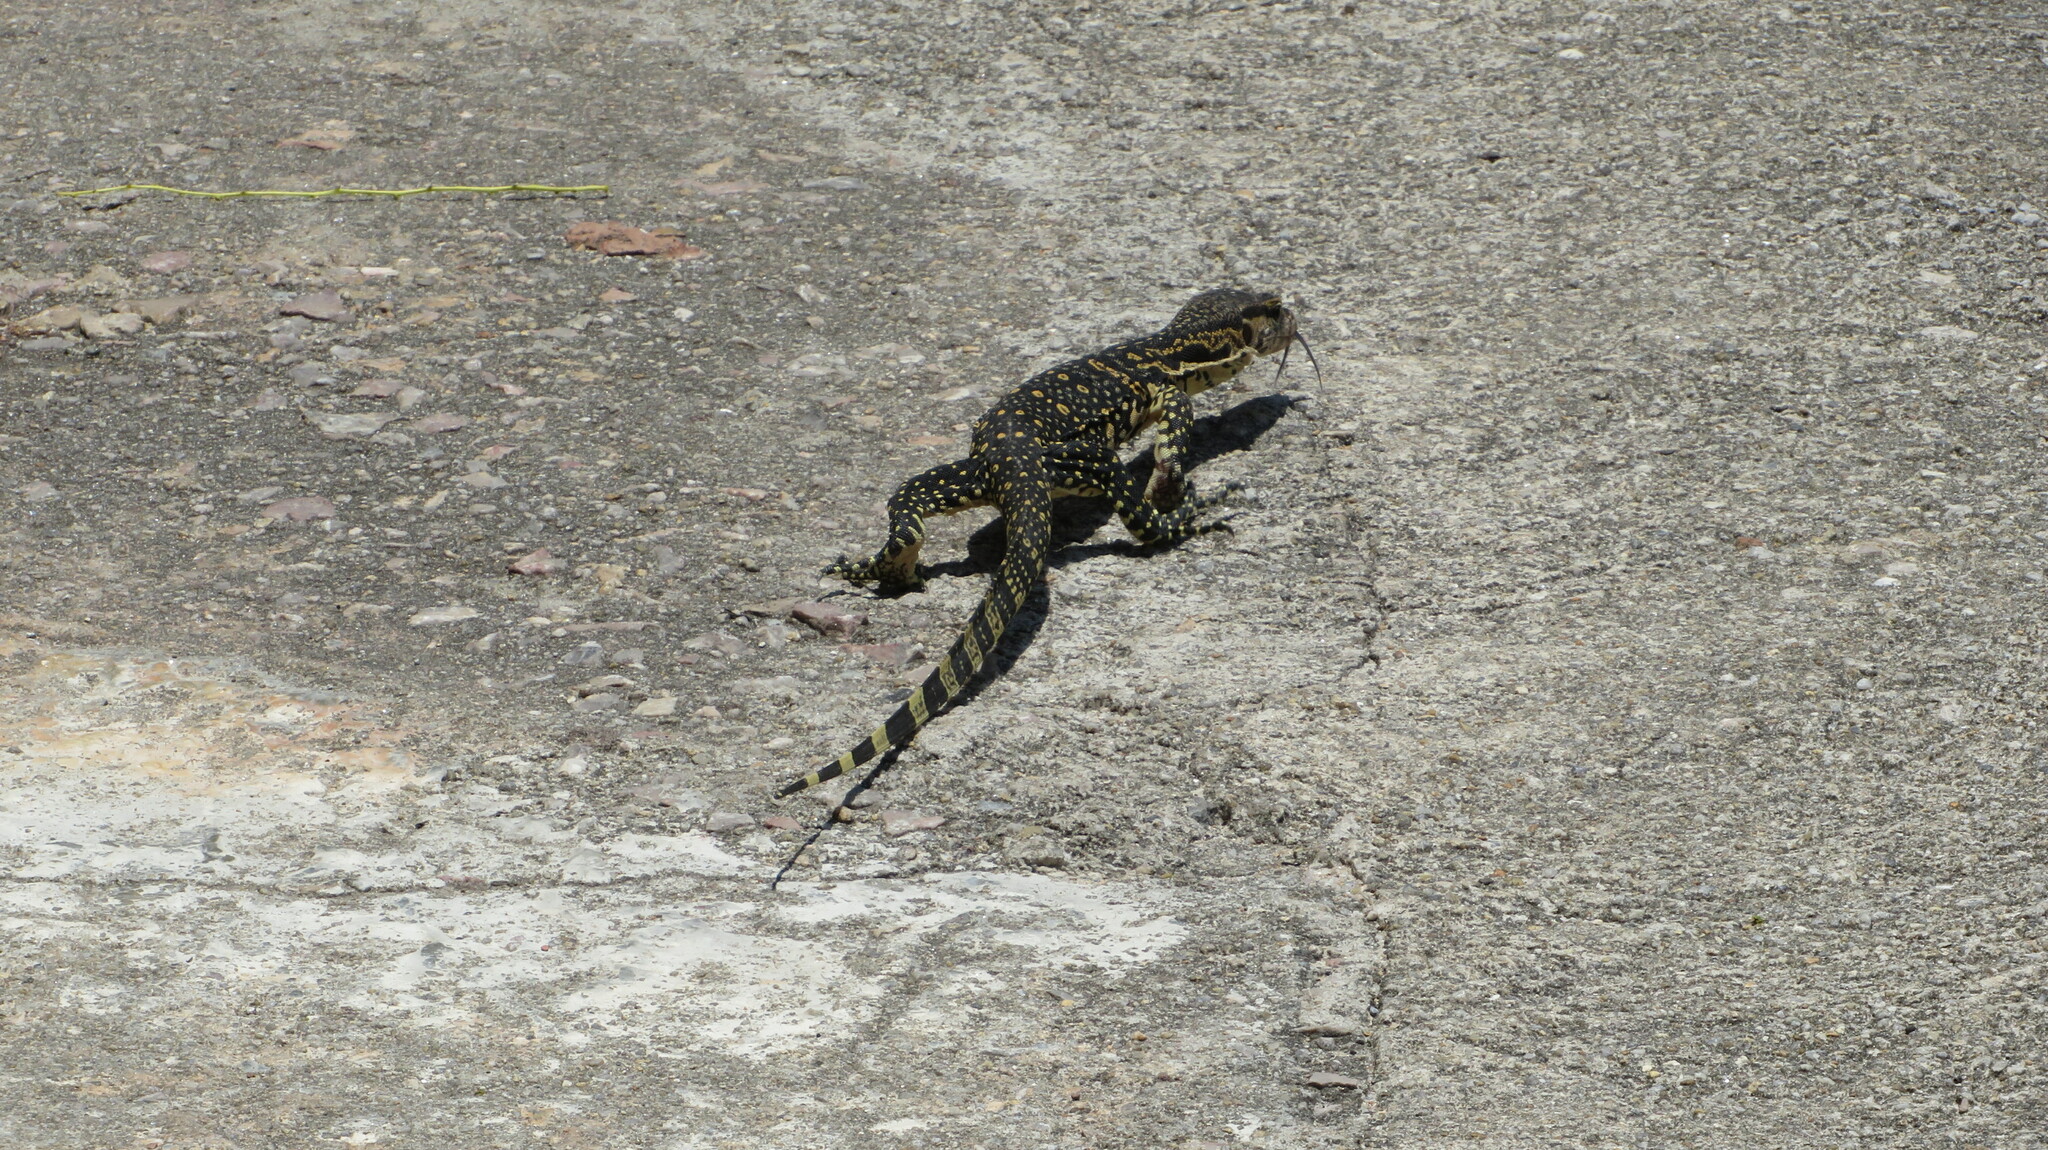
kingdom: Animalia
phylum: Chordata
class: Squamata
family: Varanidae
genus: Varanus
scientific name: Varanus salvator
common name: Common water monitor
